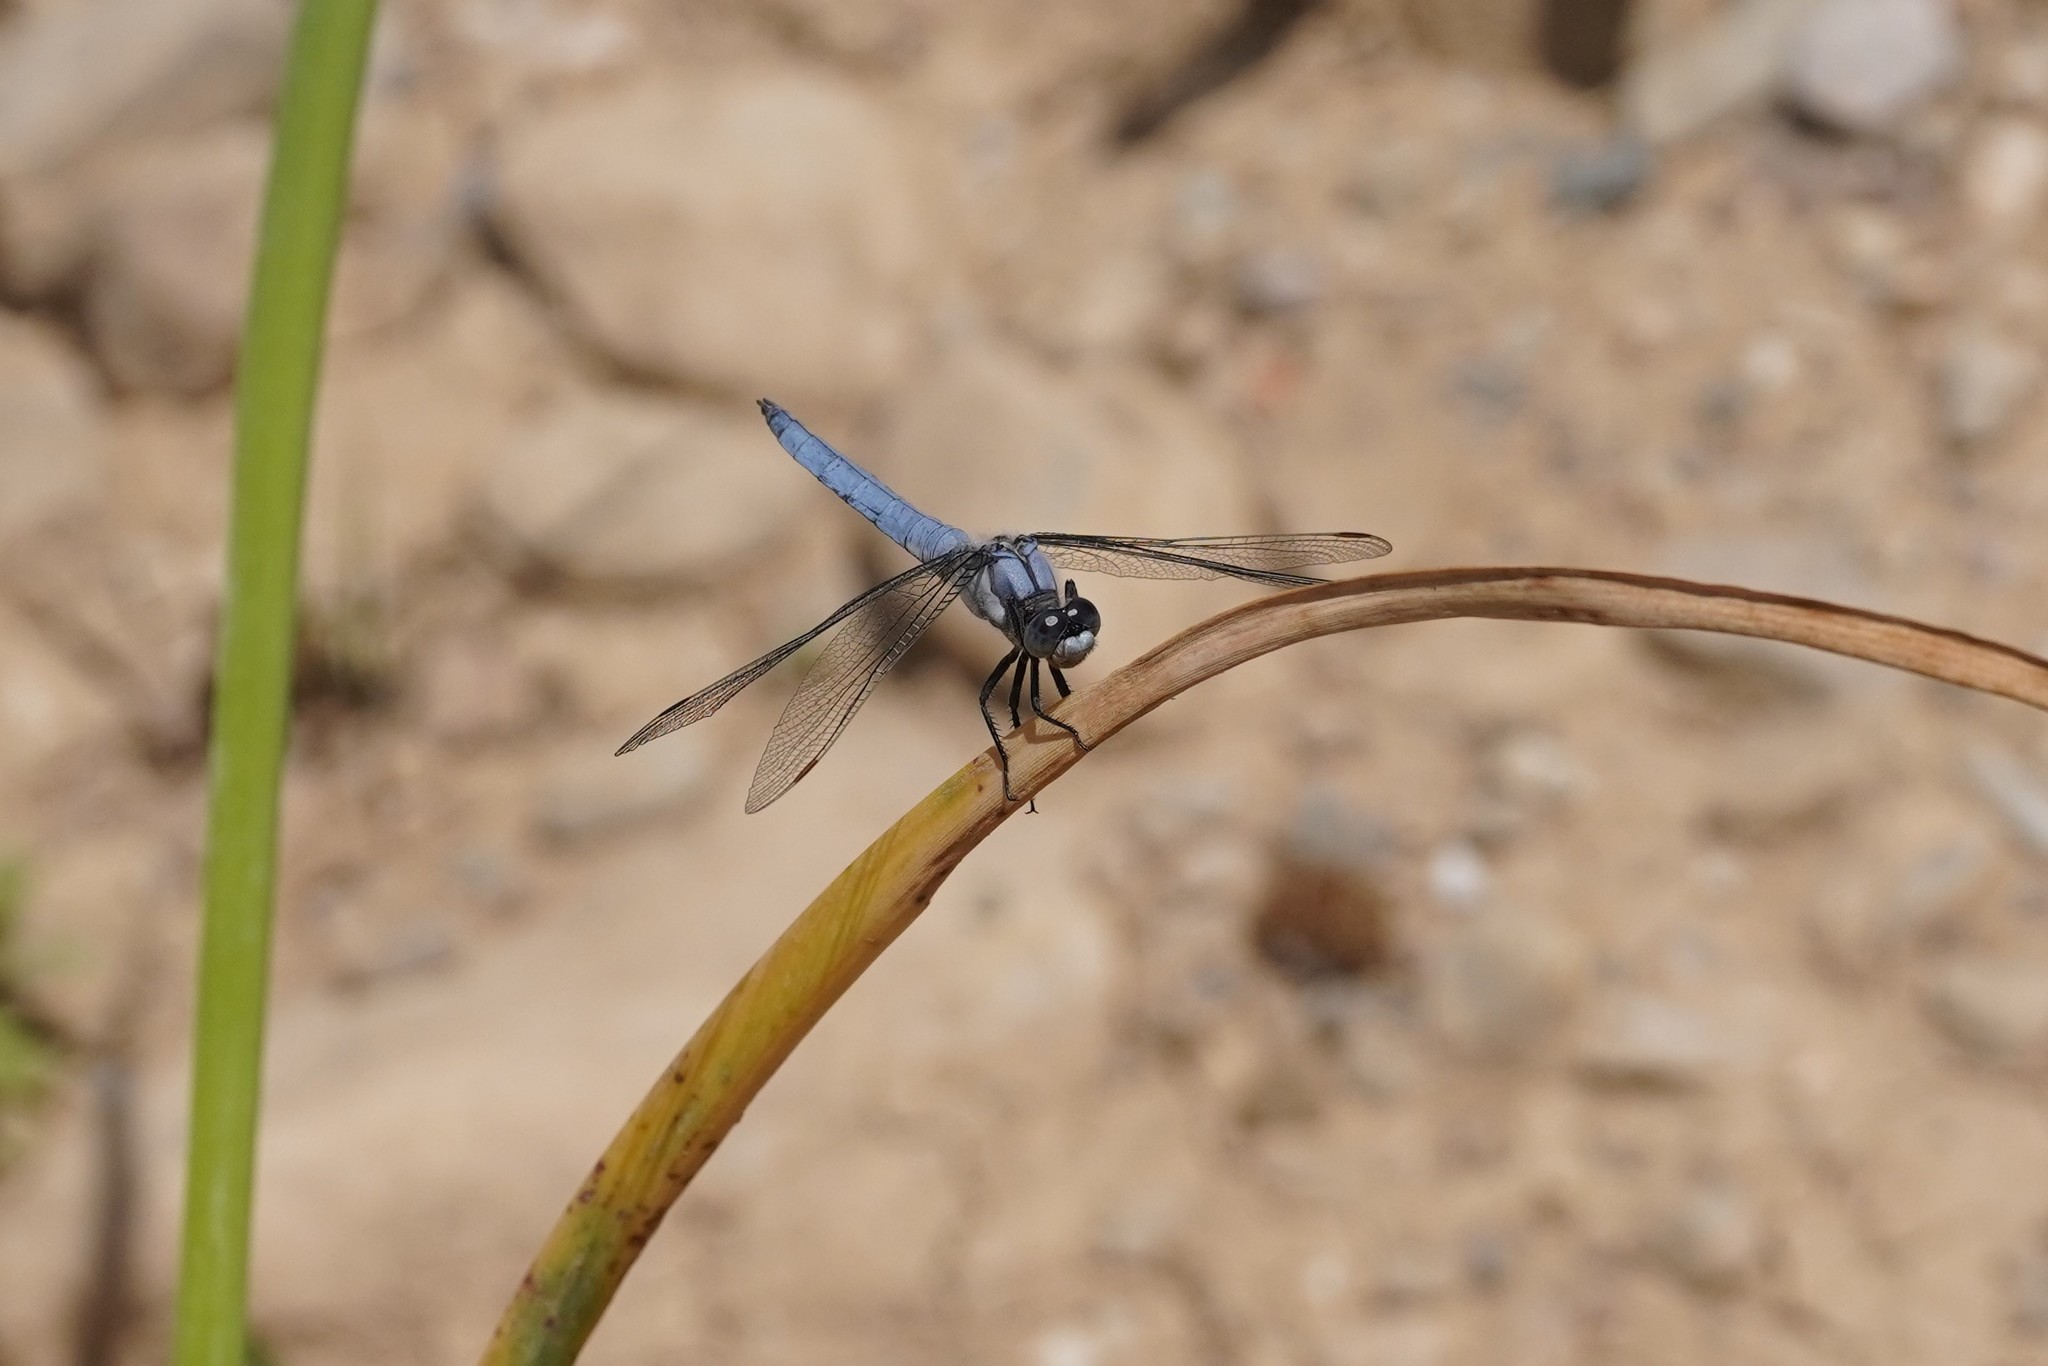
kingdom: Animalia
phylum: Arthropoda
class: Insecta
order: Odonata
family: Libellulidae
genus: Orthetrum
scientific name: Orthetrum brunneum
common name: Southern skimmer
